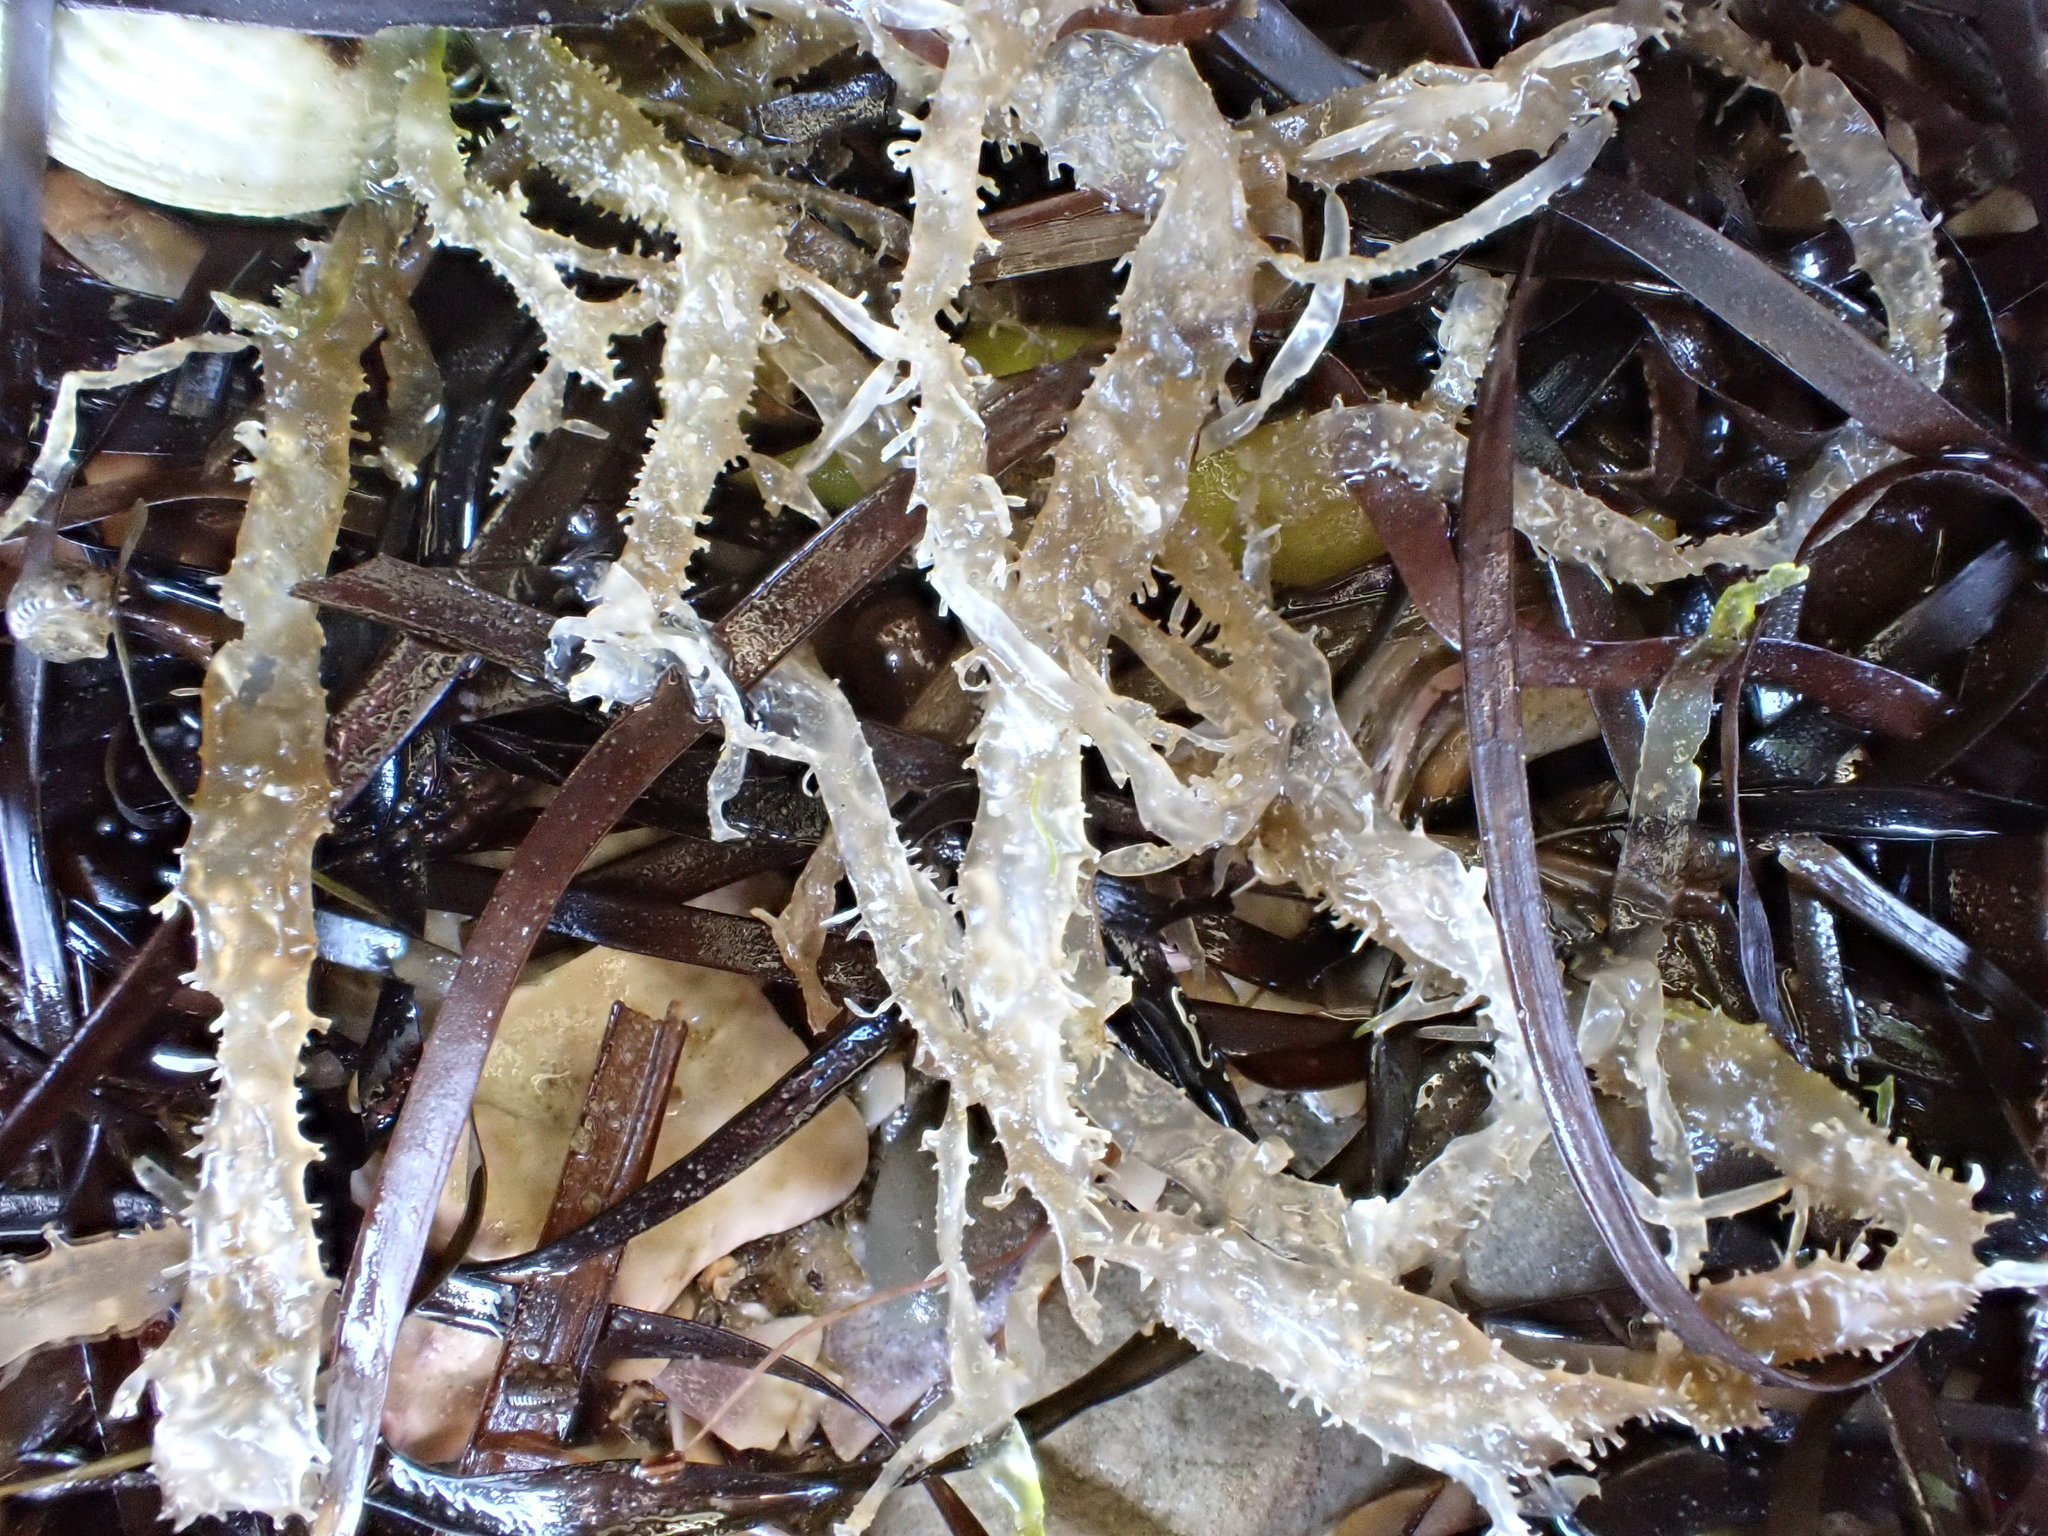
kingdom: Plantae
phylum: Chlorophyta
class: Ulvophyceae
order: Ulvales
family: Ulvaceae
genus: Ulva
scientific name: Ulva compressa
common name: Thread weed
